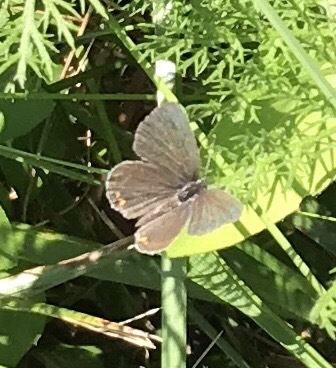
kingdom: Animalia
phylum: Arthropoda
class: Insecta
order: Lepidoptera
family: Lycaenidae
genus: Elkalyce
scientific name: Elkalyce comyntas
